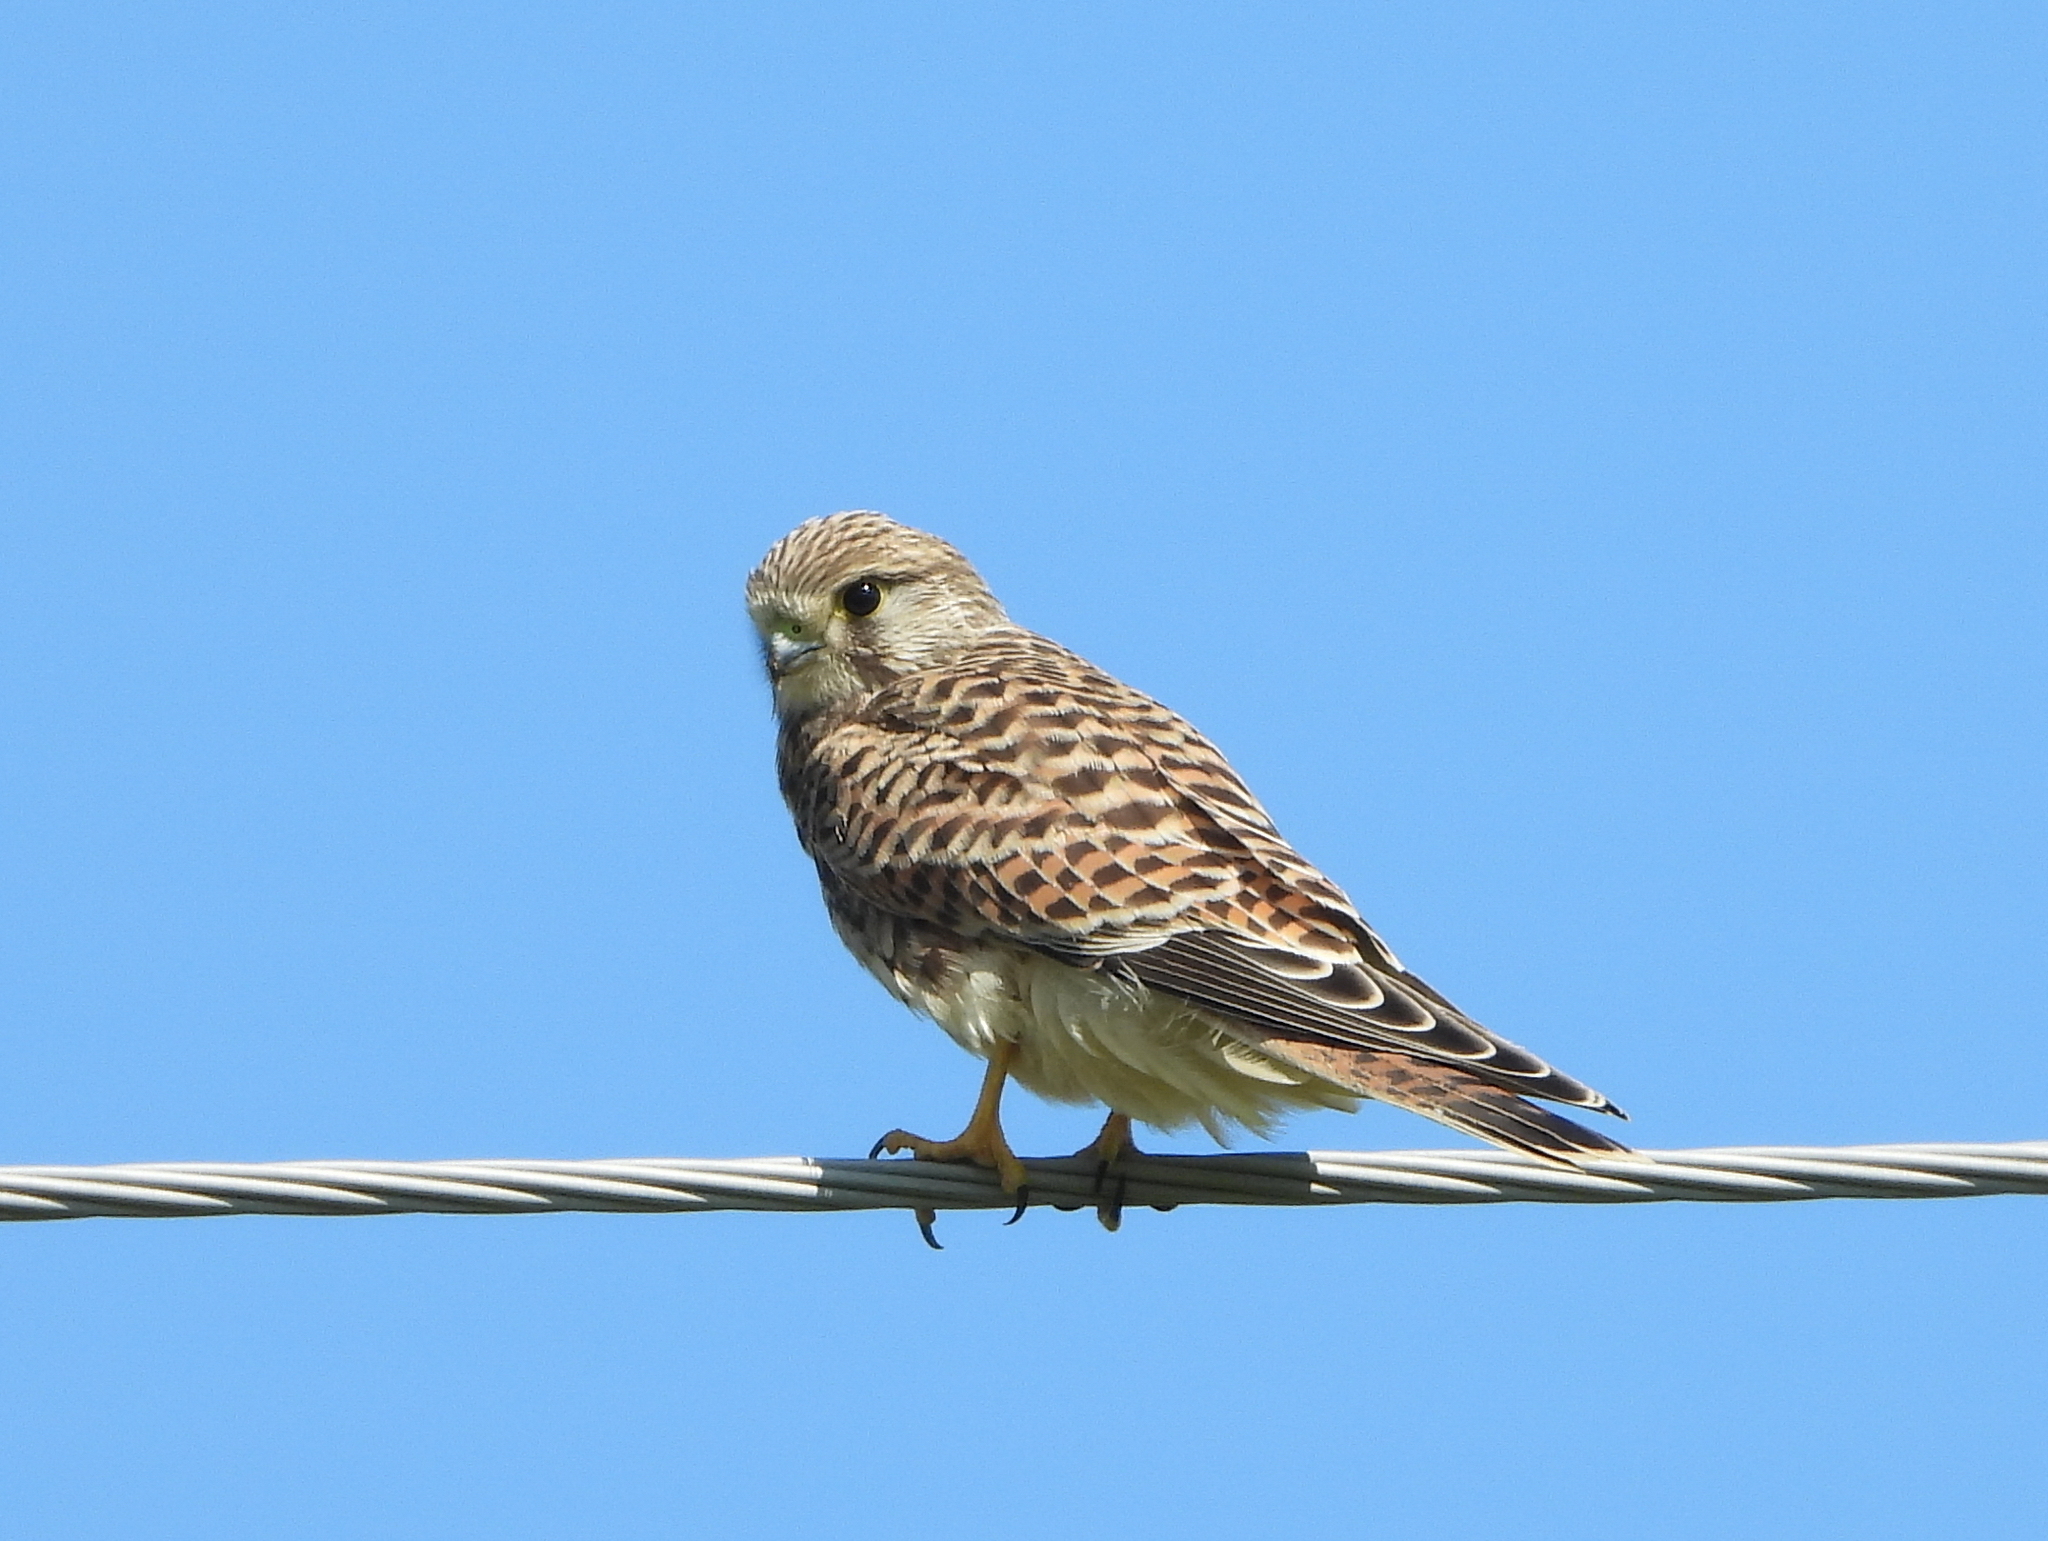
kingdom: Animalia
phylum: Chordata
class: Aves
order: Falconiformes
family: Falconidae
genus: Falco
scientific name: Falco tinnunculus
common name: Common kestrel
